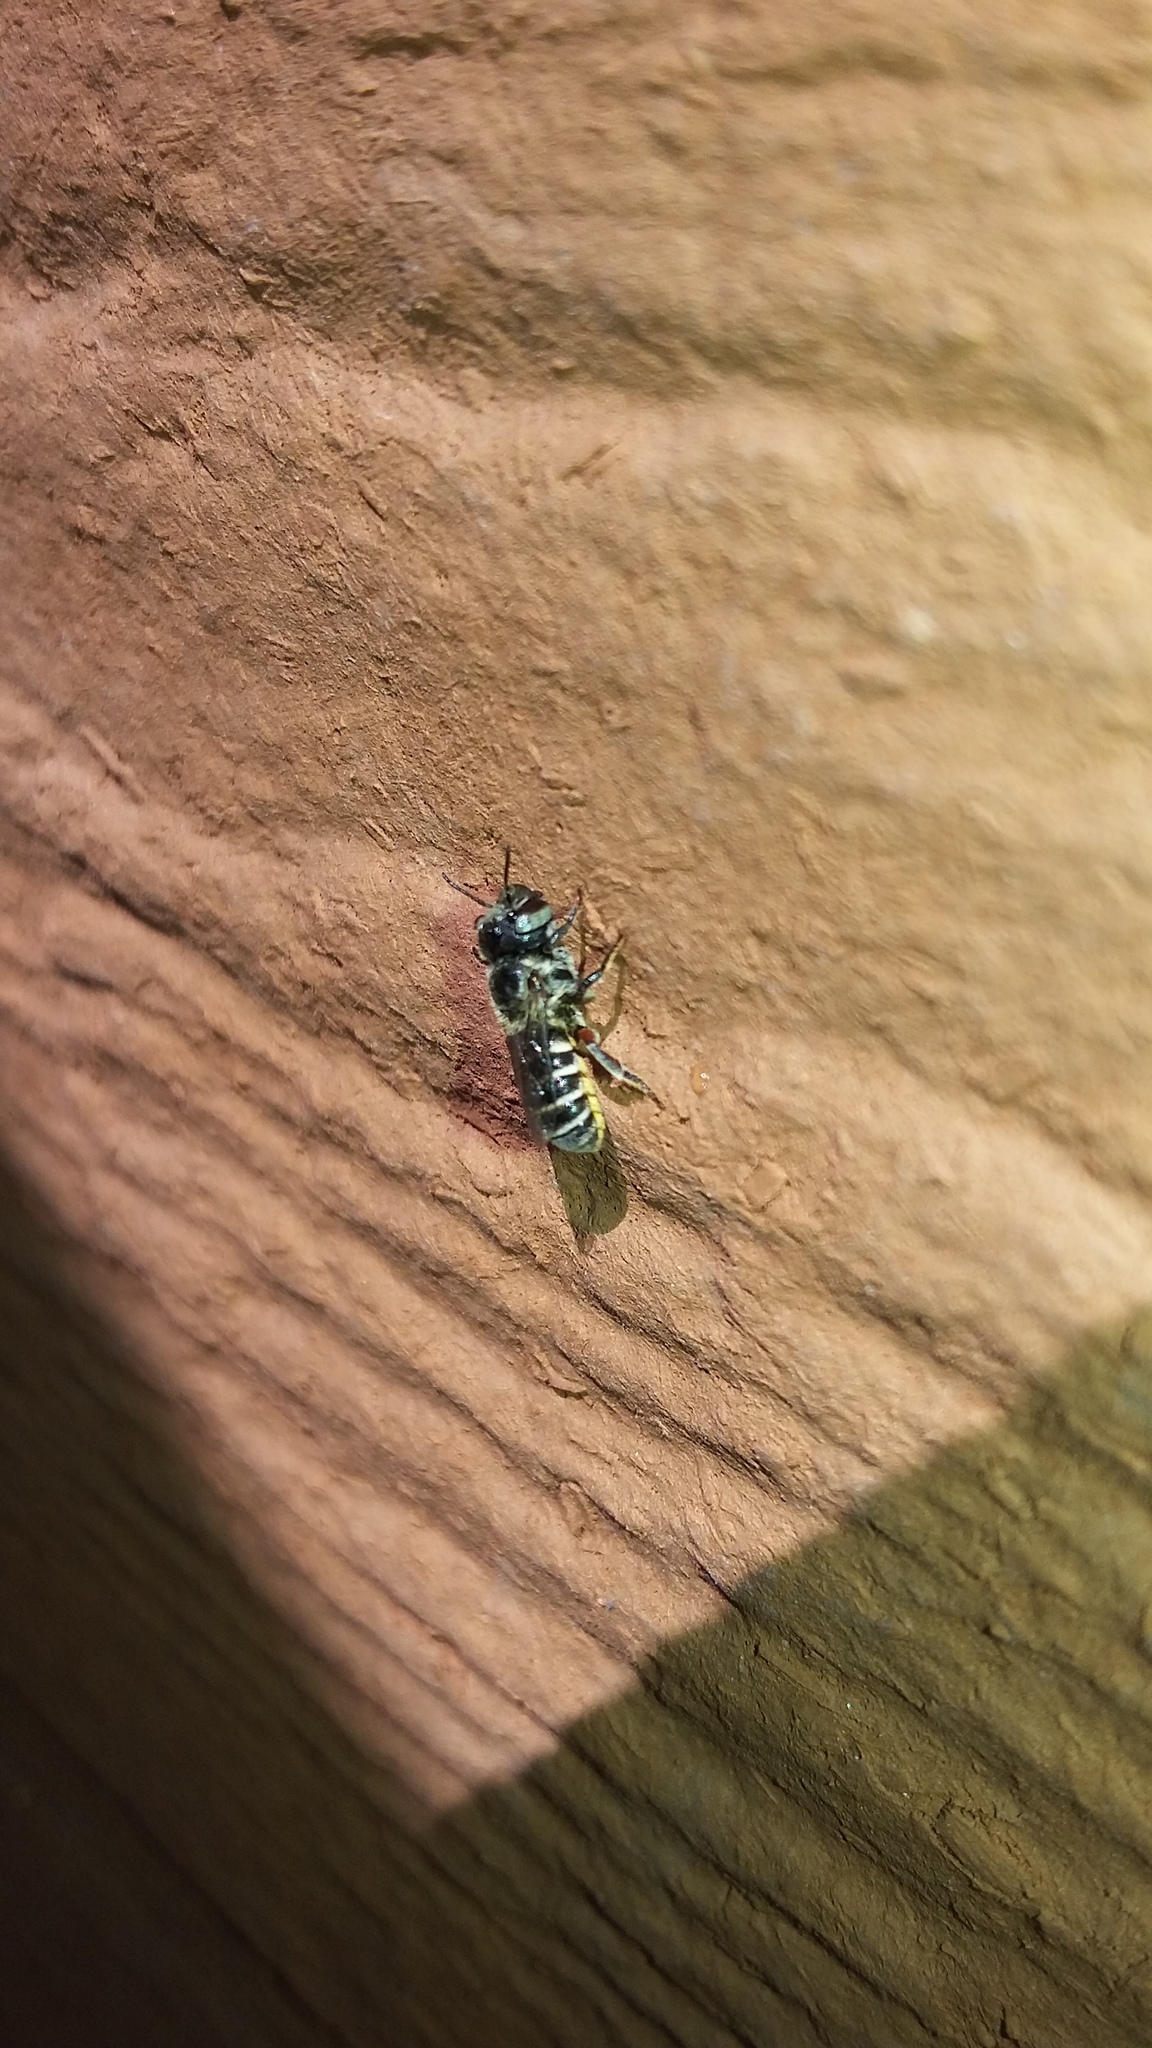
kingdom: Animalia
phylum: Arthropoda
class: Insecta
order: Hymenoptera
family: Megachilidae
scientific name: Megachilidae
